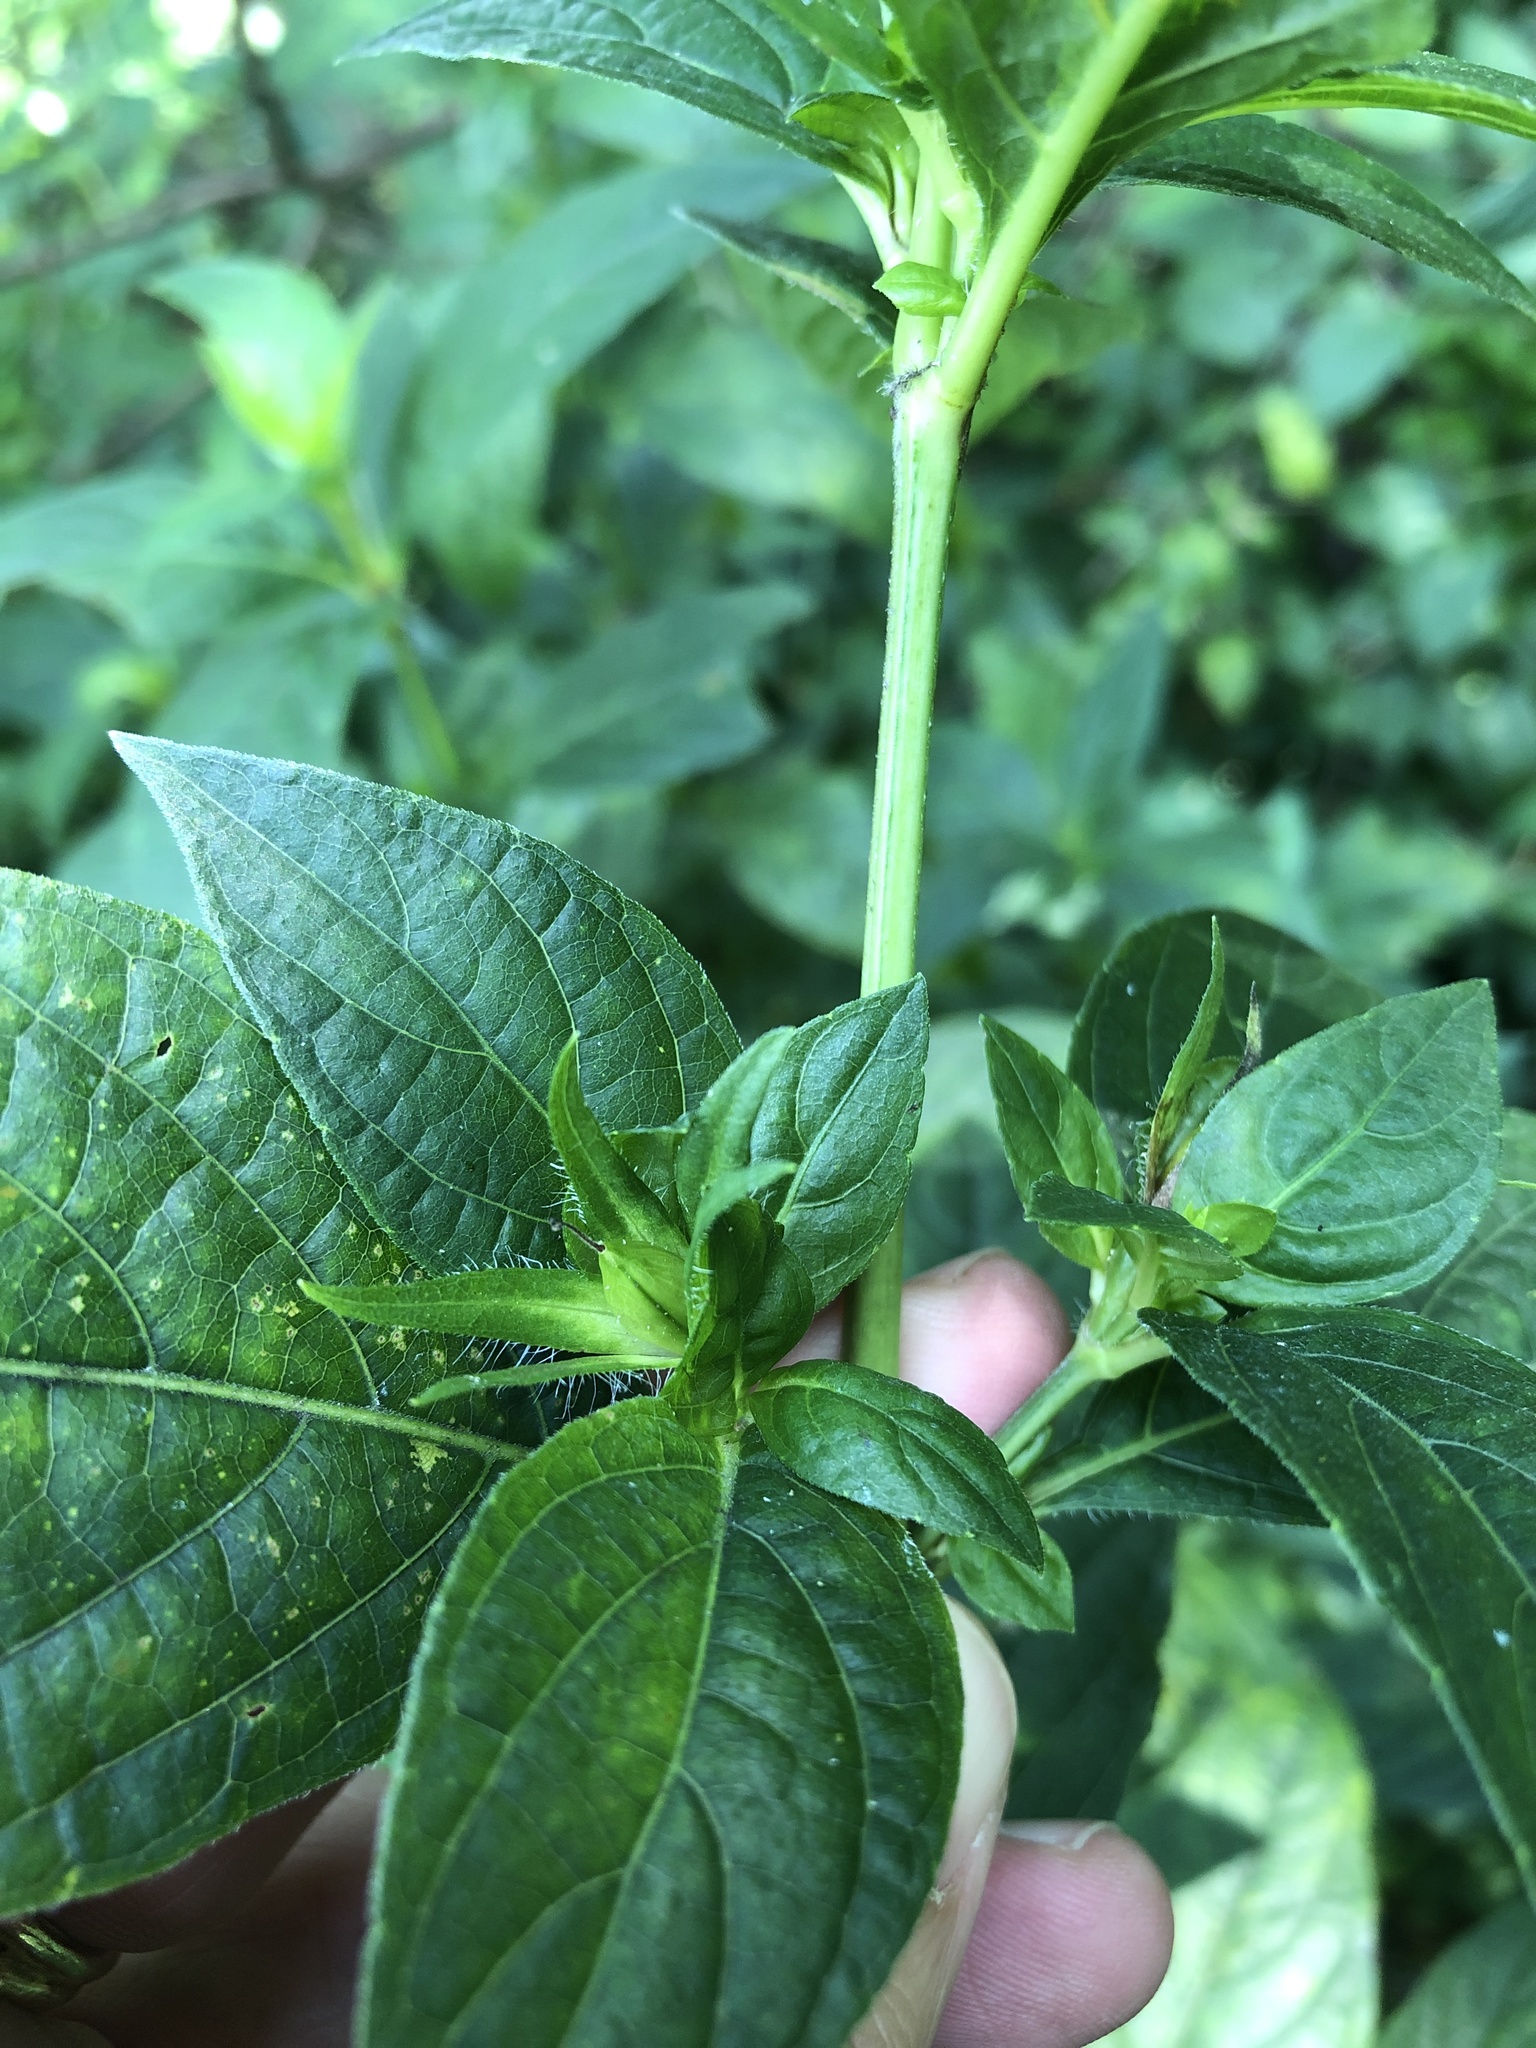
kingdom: Plantae
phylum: Tracheophyta
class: Magnoliopsida
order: Lamiales
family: Acanthaceae
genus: Ruellia
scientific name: Ruellia strepens
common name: Limestone wild petunia
